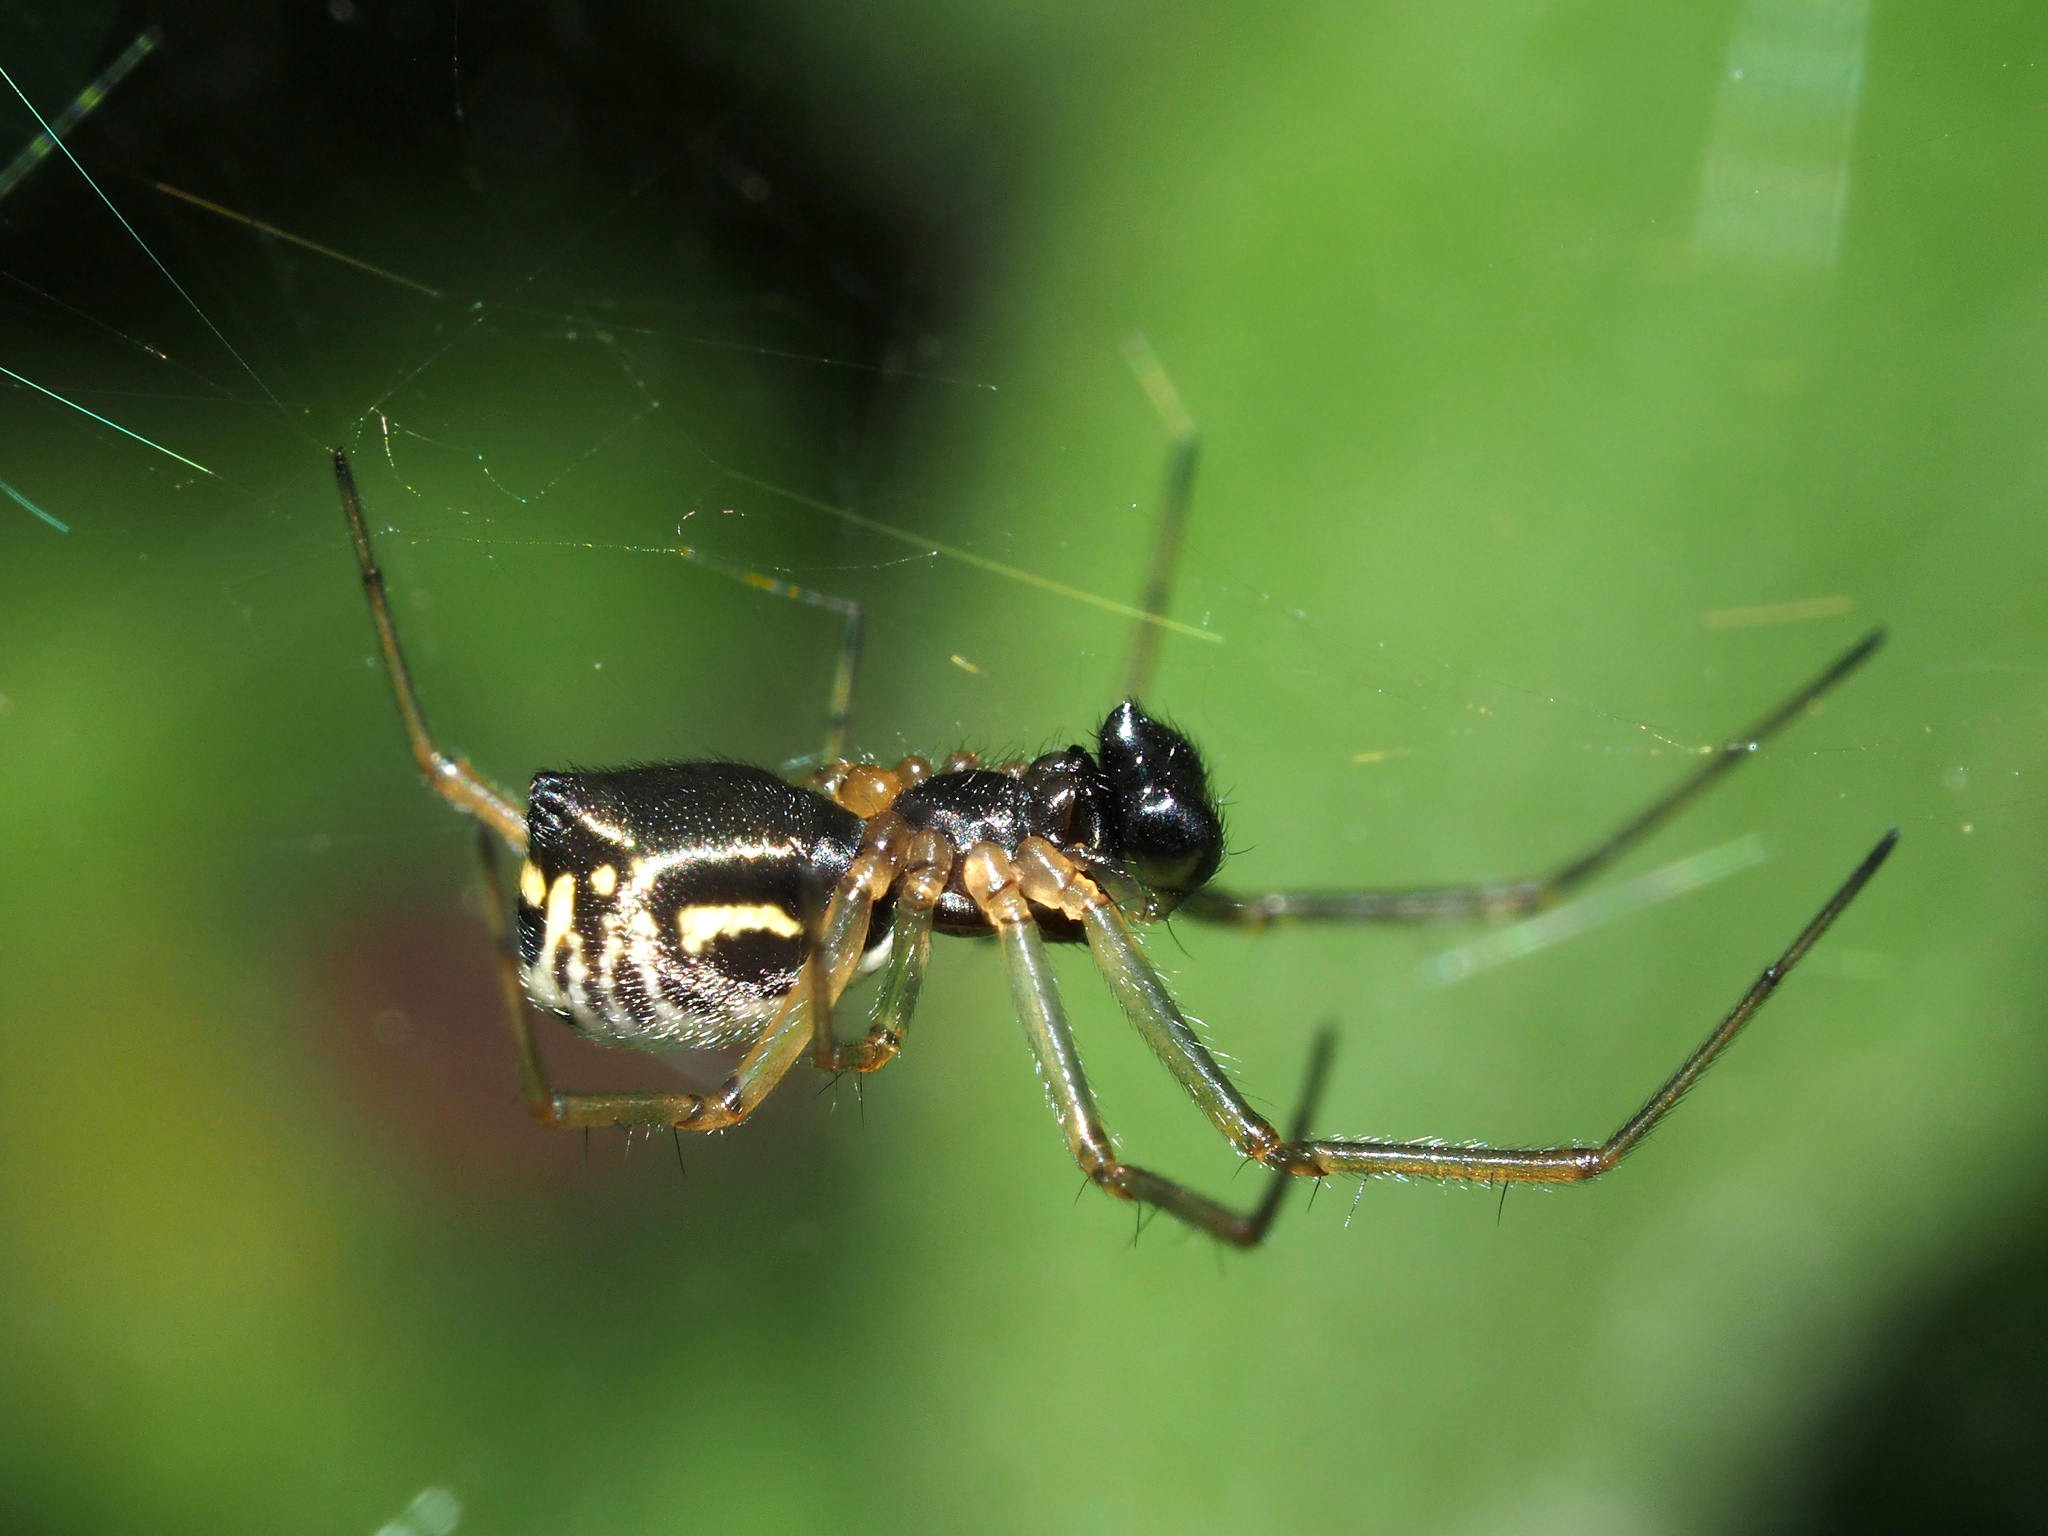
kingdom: Animalia
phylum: Arthropoda
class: Arachnida
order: Araneae
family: Linyphiidae
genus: Frontinellina
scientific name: Frontinellina frutetorum
